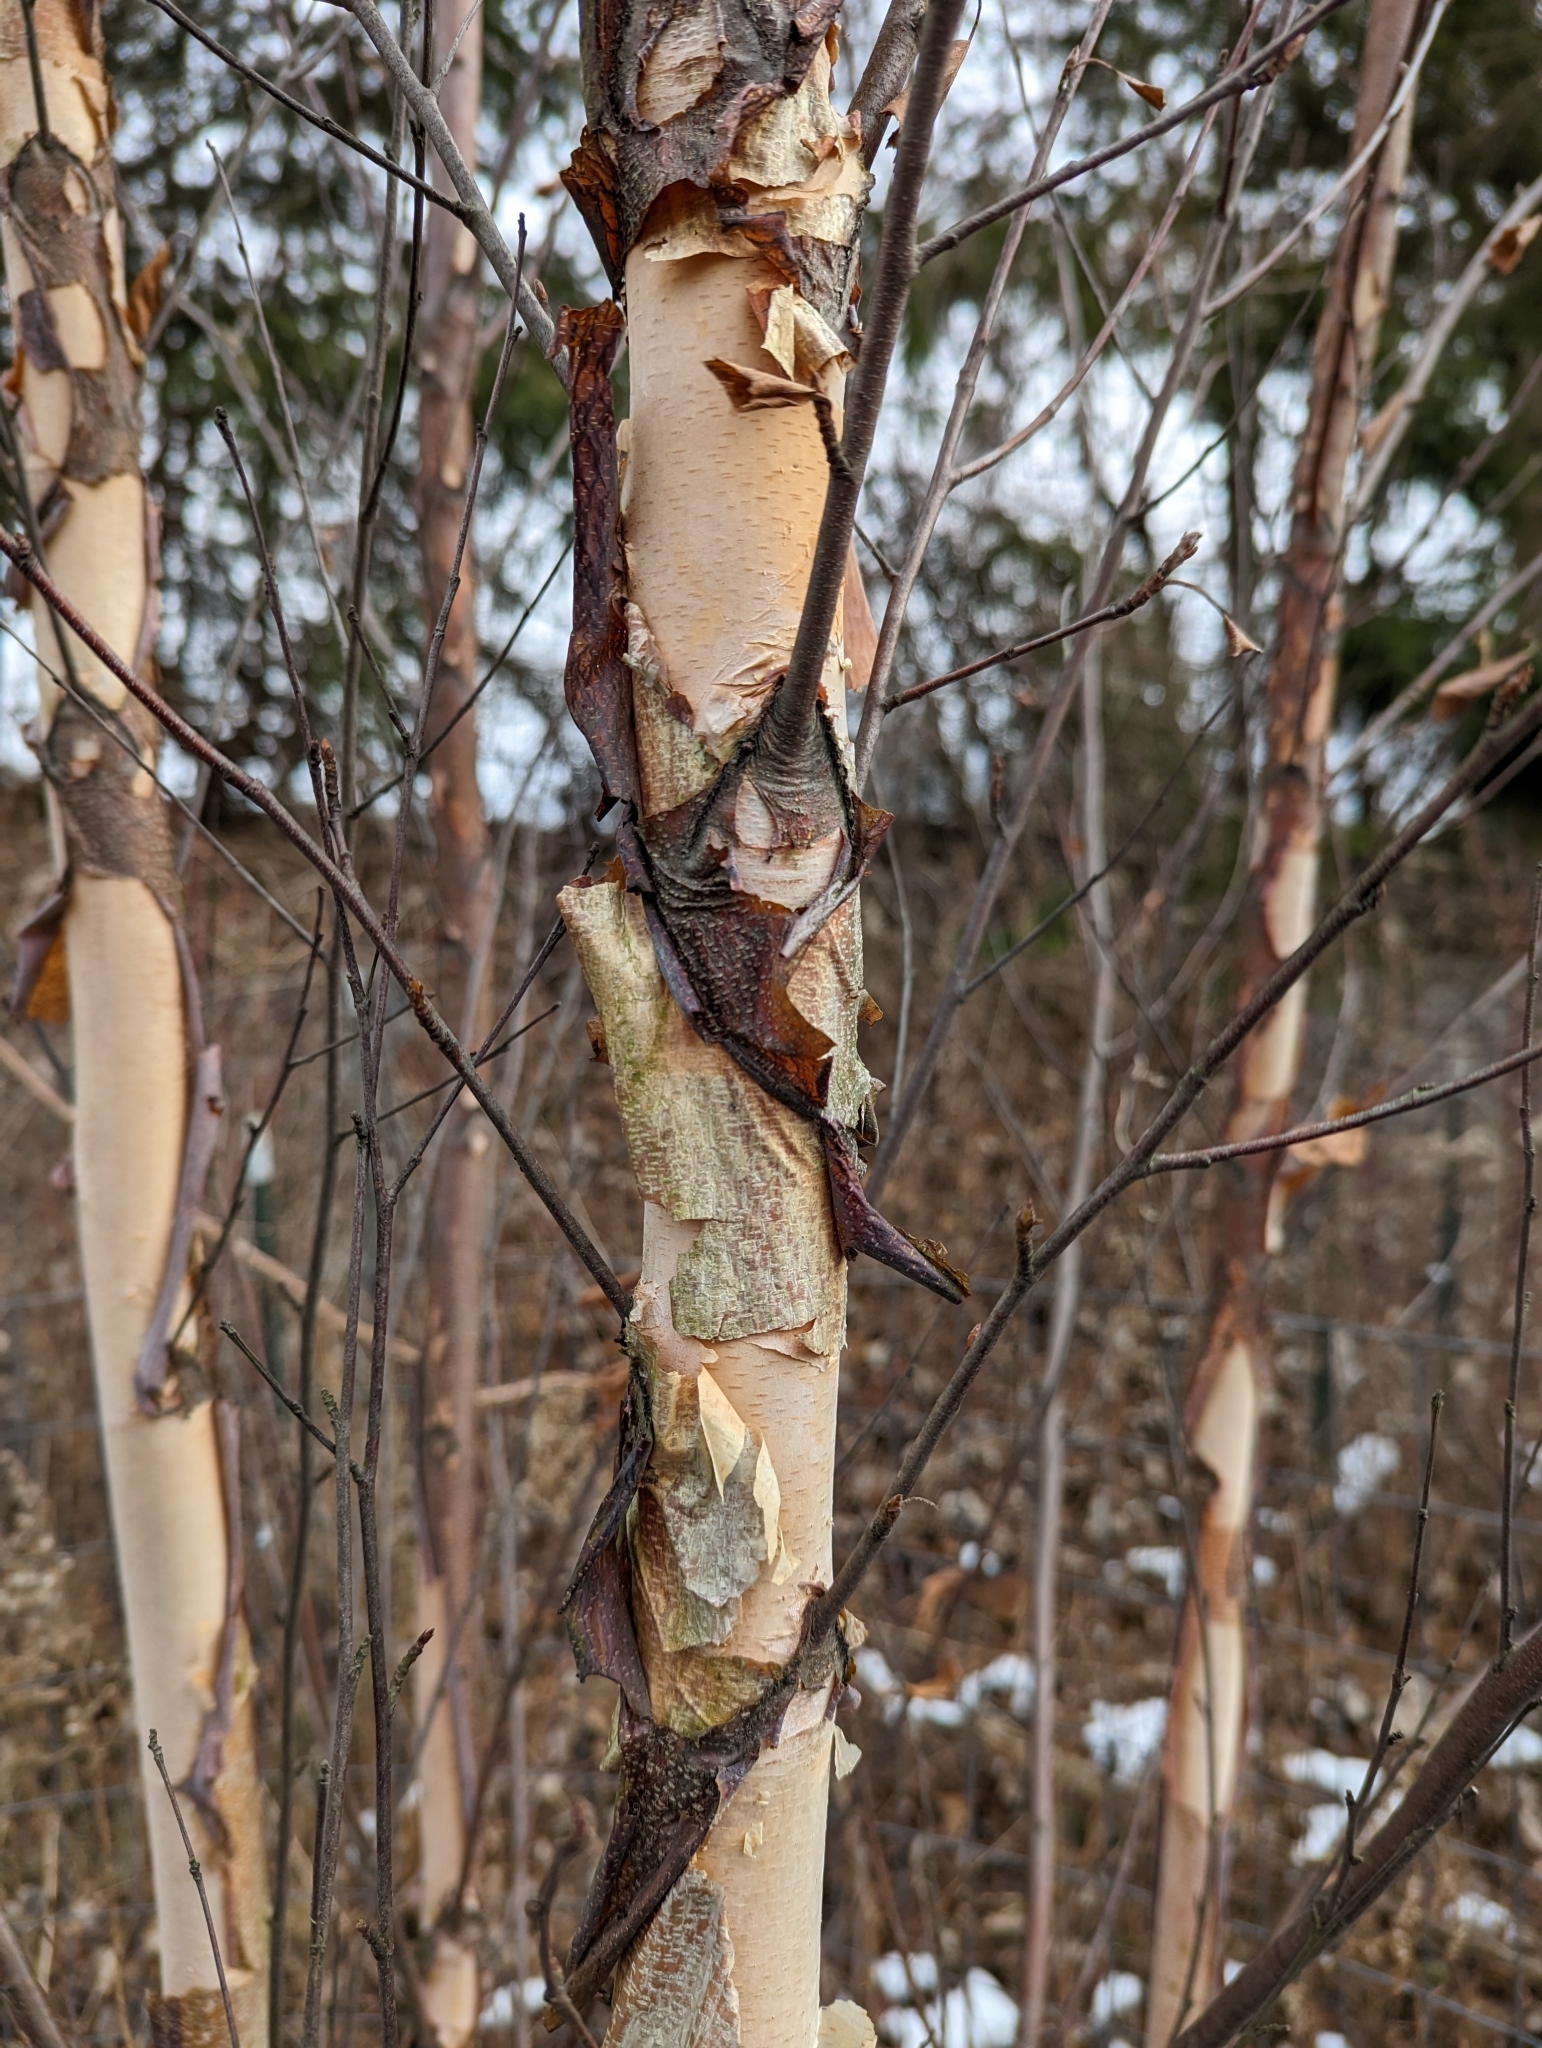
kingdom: Plantae
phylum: Tracheophyta
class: Magnoliopsida
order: Fagales
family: Betulaceae
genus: Betula
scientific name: Betula nigra
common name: Black birch
